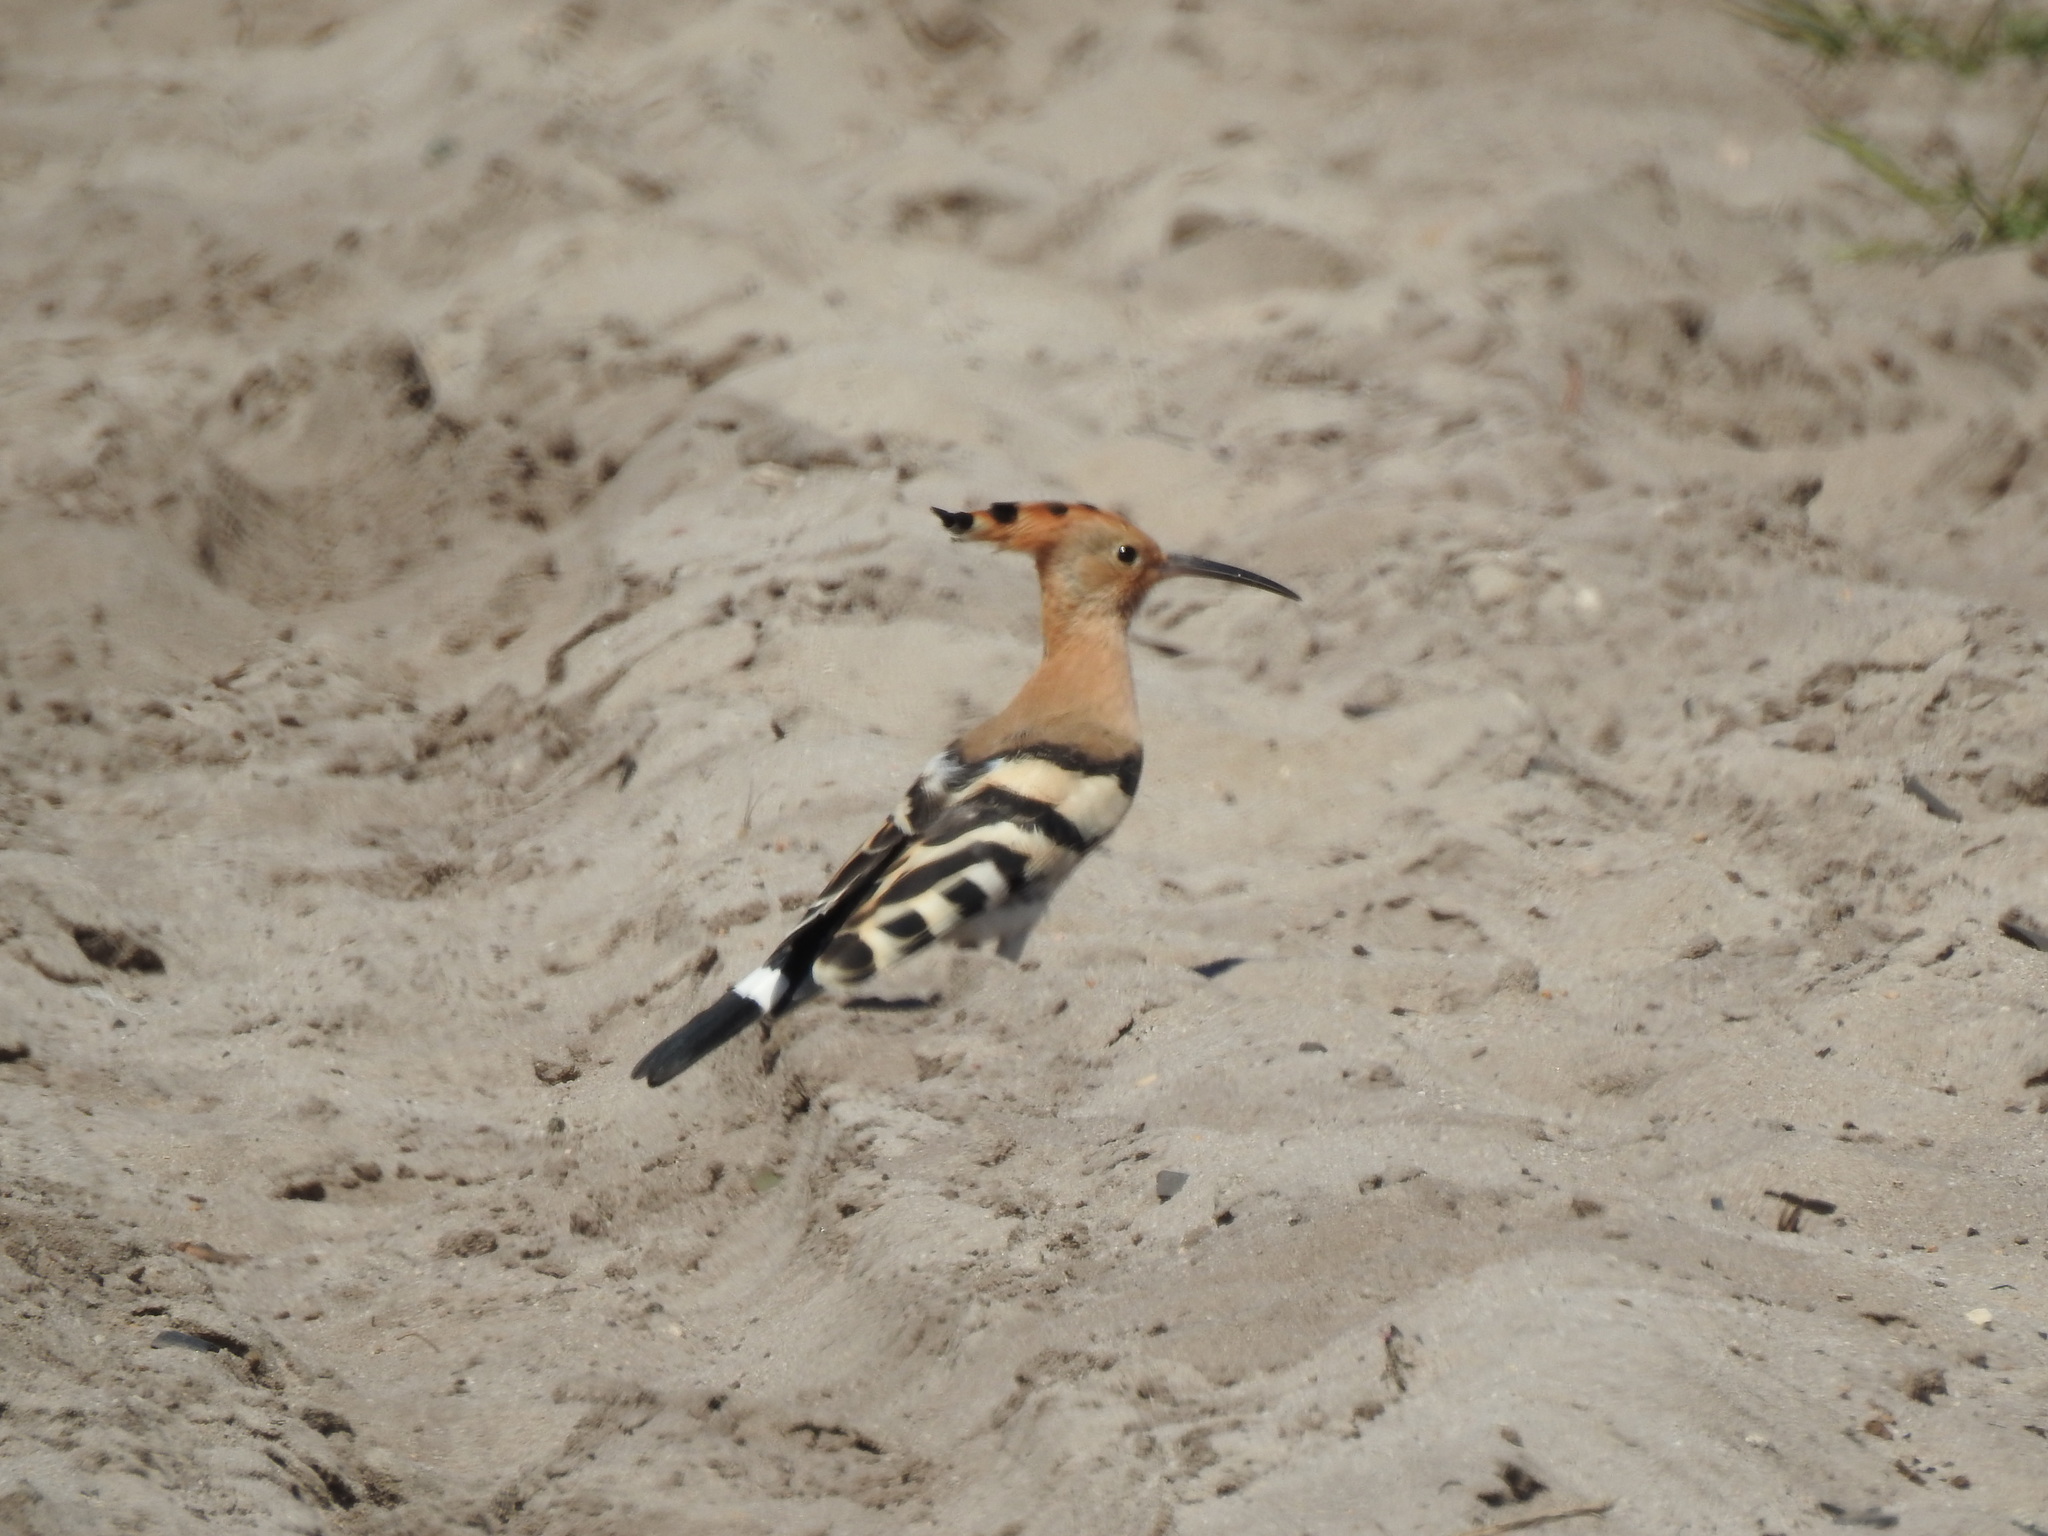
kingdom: Animalia
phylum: Chordata
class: Aves
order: Bucerotiformes
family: Upupidae
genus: Upupa
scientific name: Upupa epops
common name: Eurasian hoopoe
